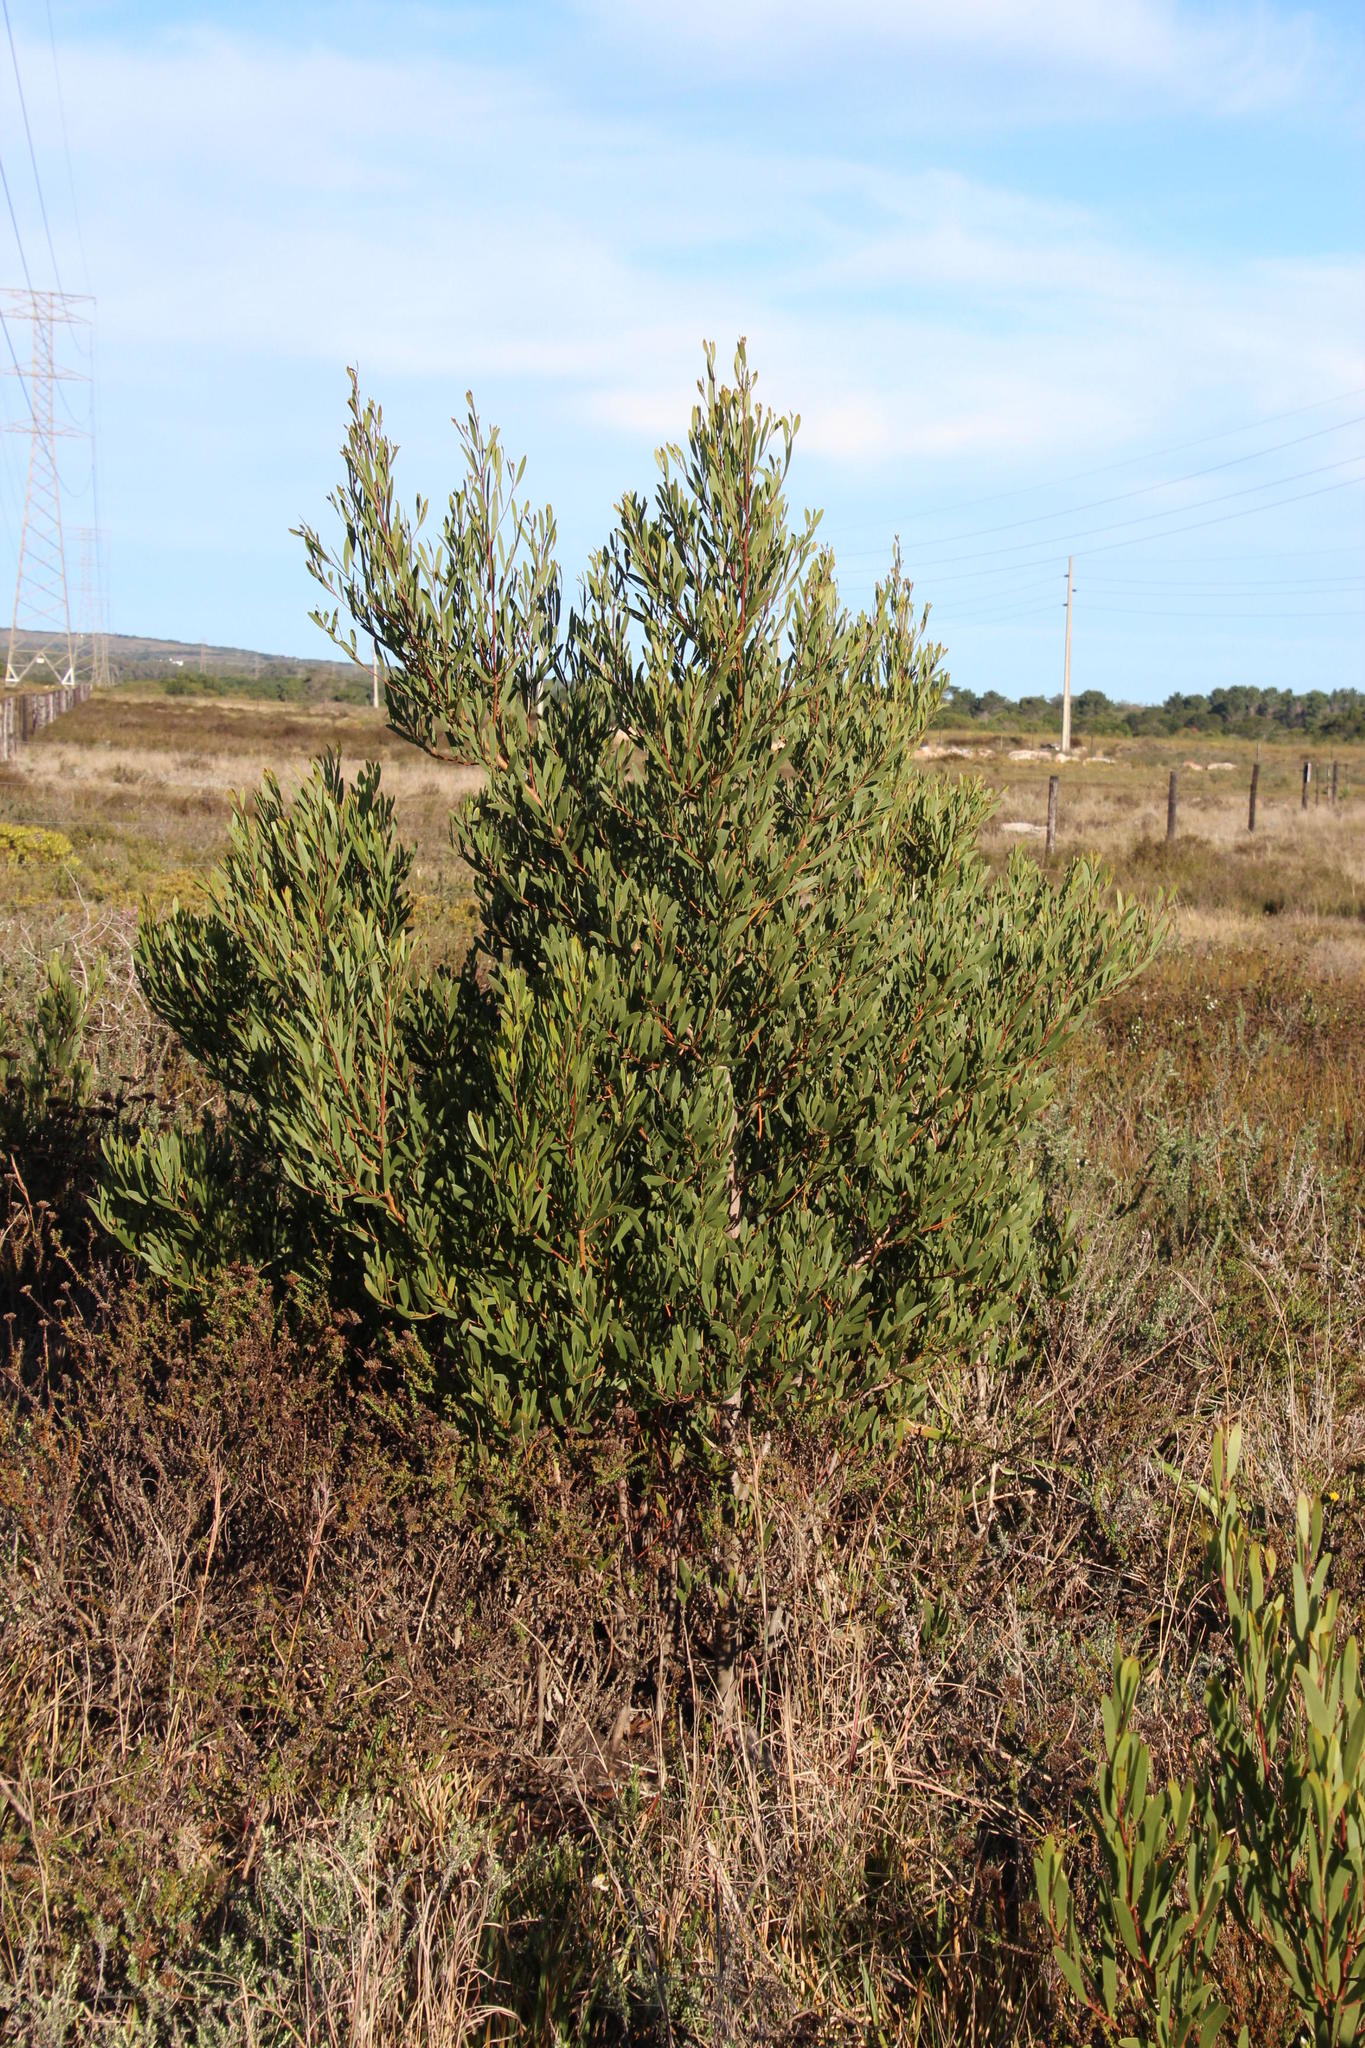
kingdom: Plantae
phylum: Tracheophyta
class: Magnoliopsida
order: Fabales
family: Fabaceae
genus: Acacia
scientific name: Acacia cyclops
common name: Coastal wattle
